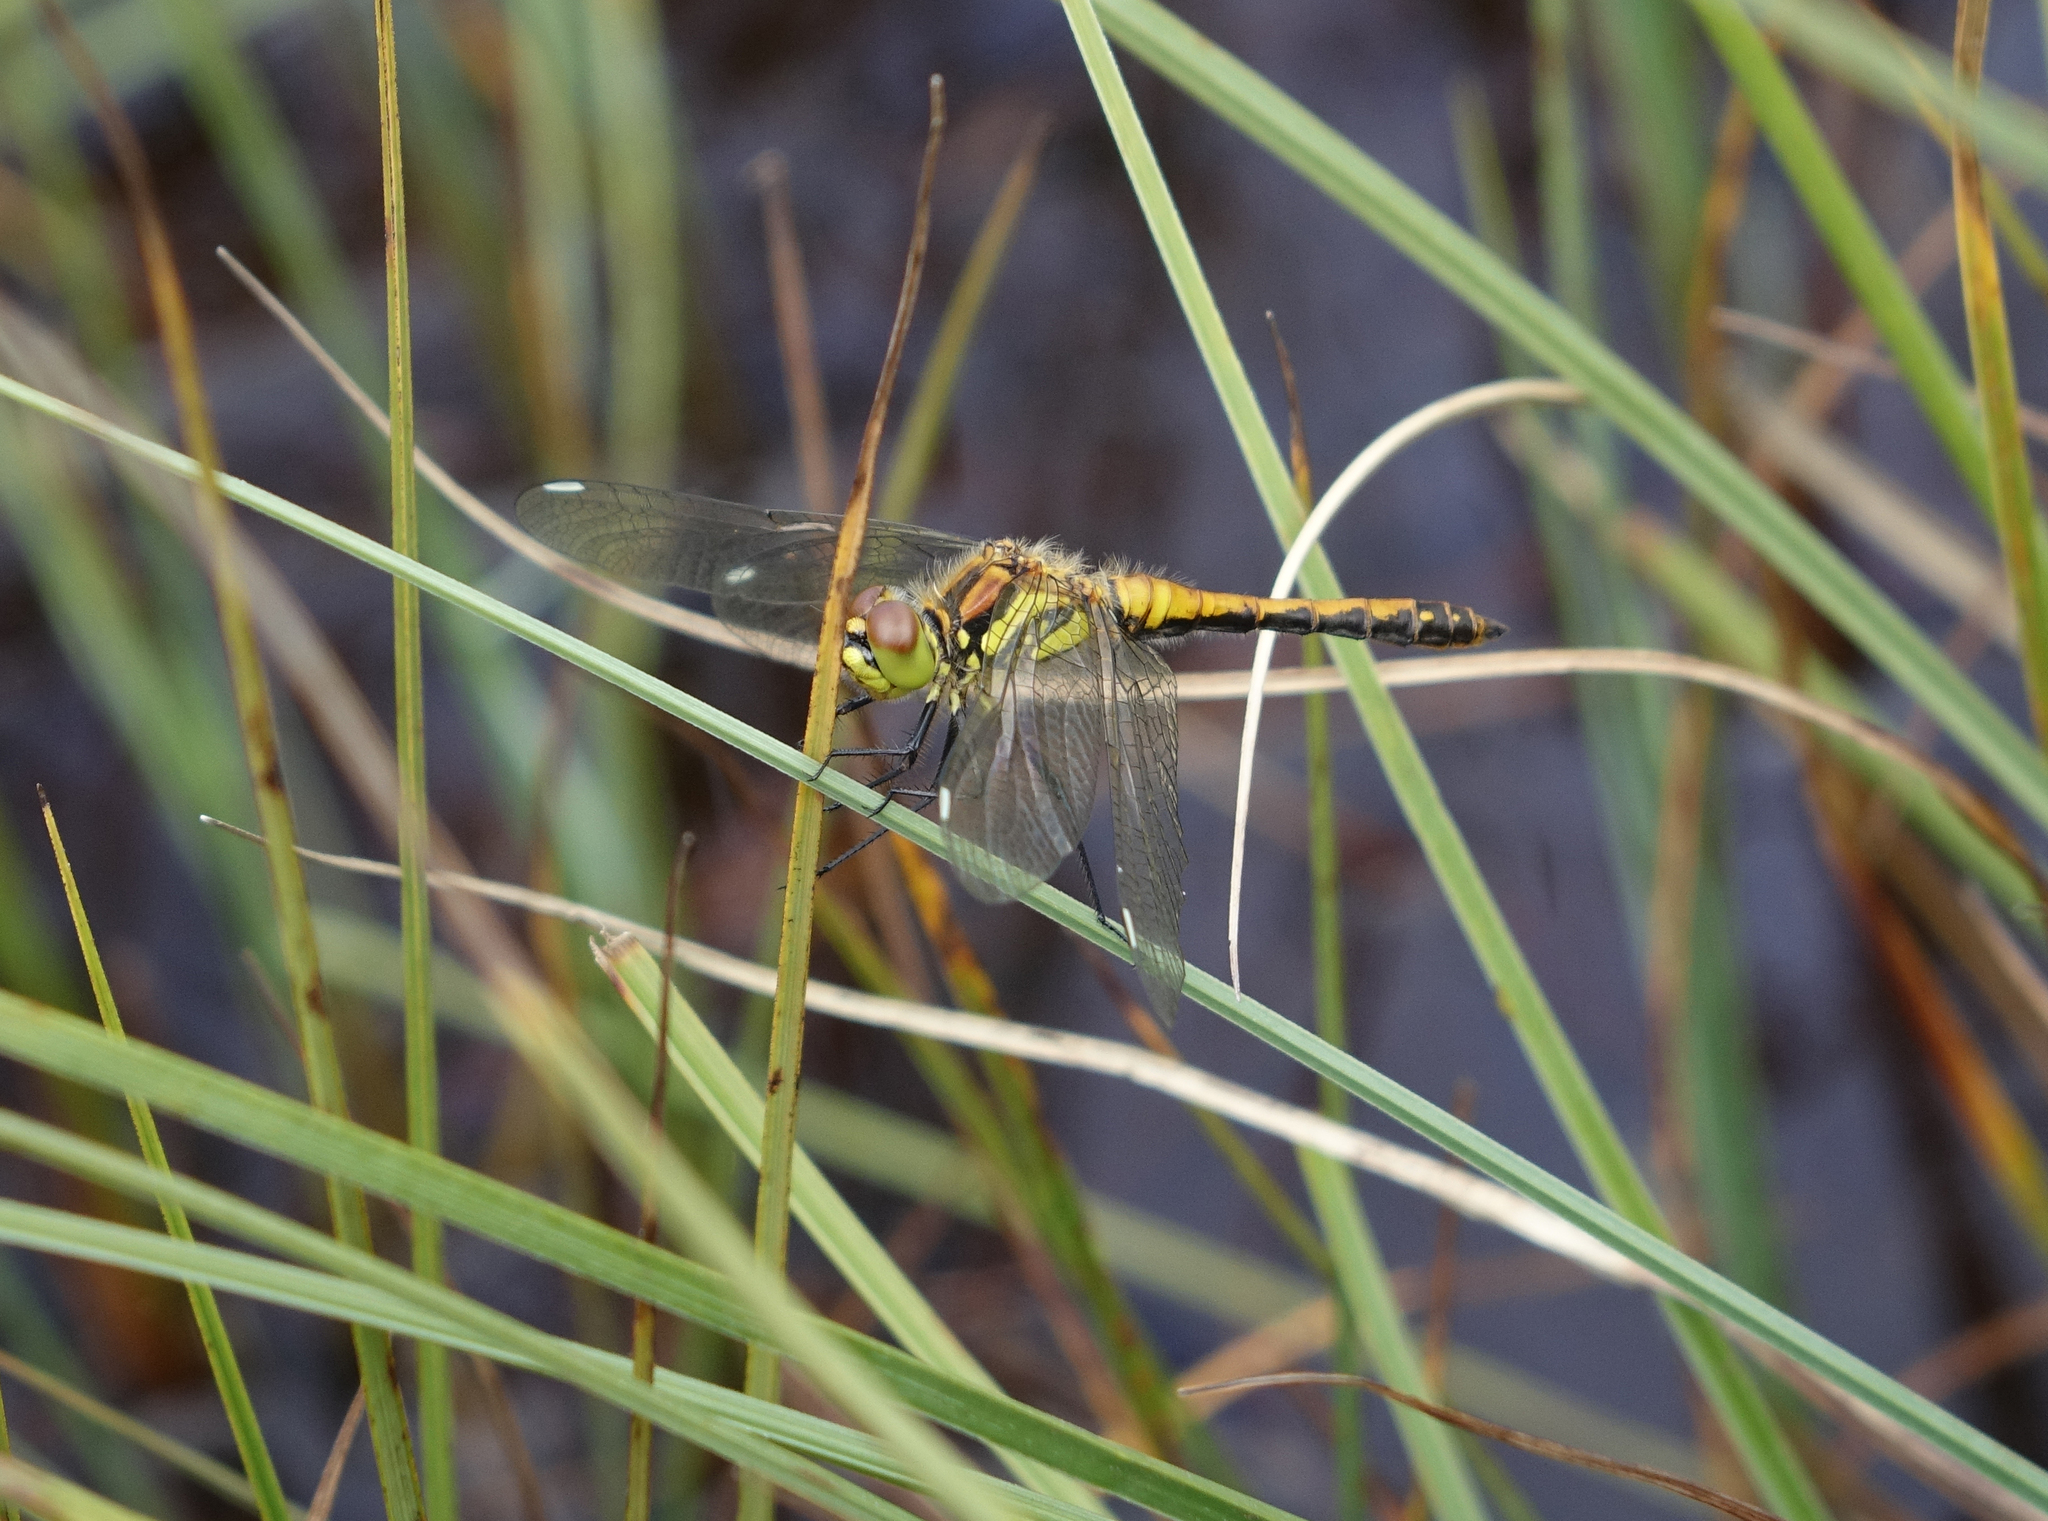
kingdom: Animalia
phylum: Arthropoda
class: Insecta
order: Odonata
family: Libellulidae
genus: Sympetrum
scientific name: Sympetrum danae
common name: Black darter
